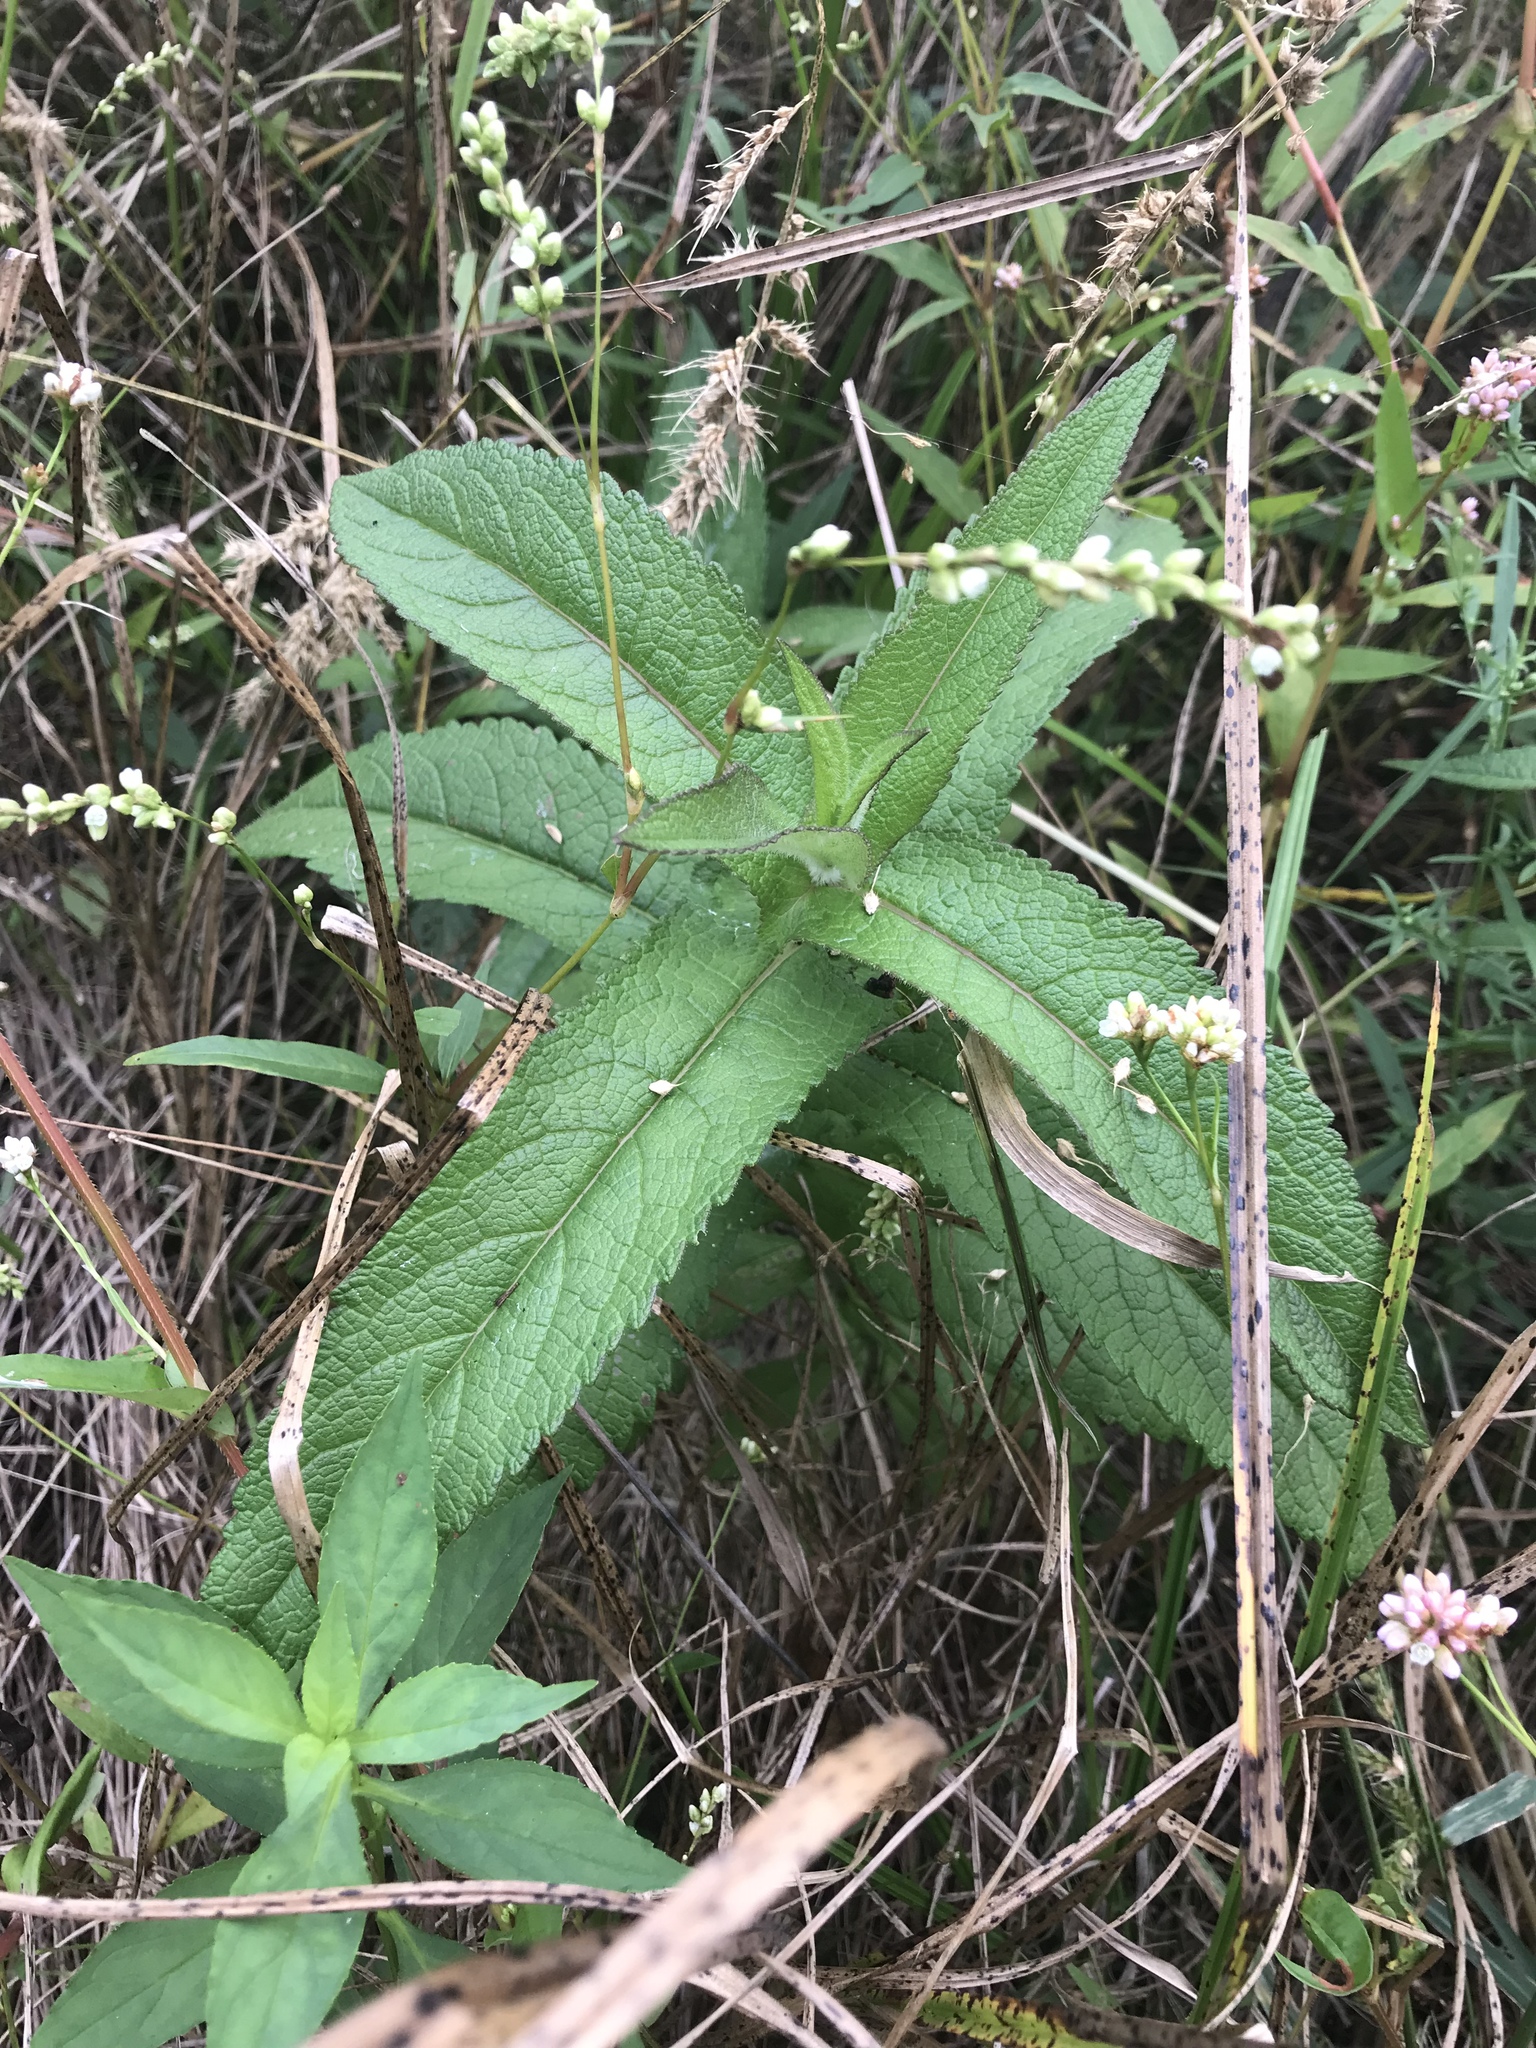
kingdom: Plantae
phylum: Tracheophyta
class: Magnoliopsida
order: Asterales
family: Asteraceae
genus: Eupatorium
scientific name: Eupatorium perfoliatum
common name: Boneset
